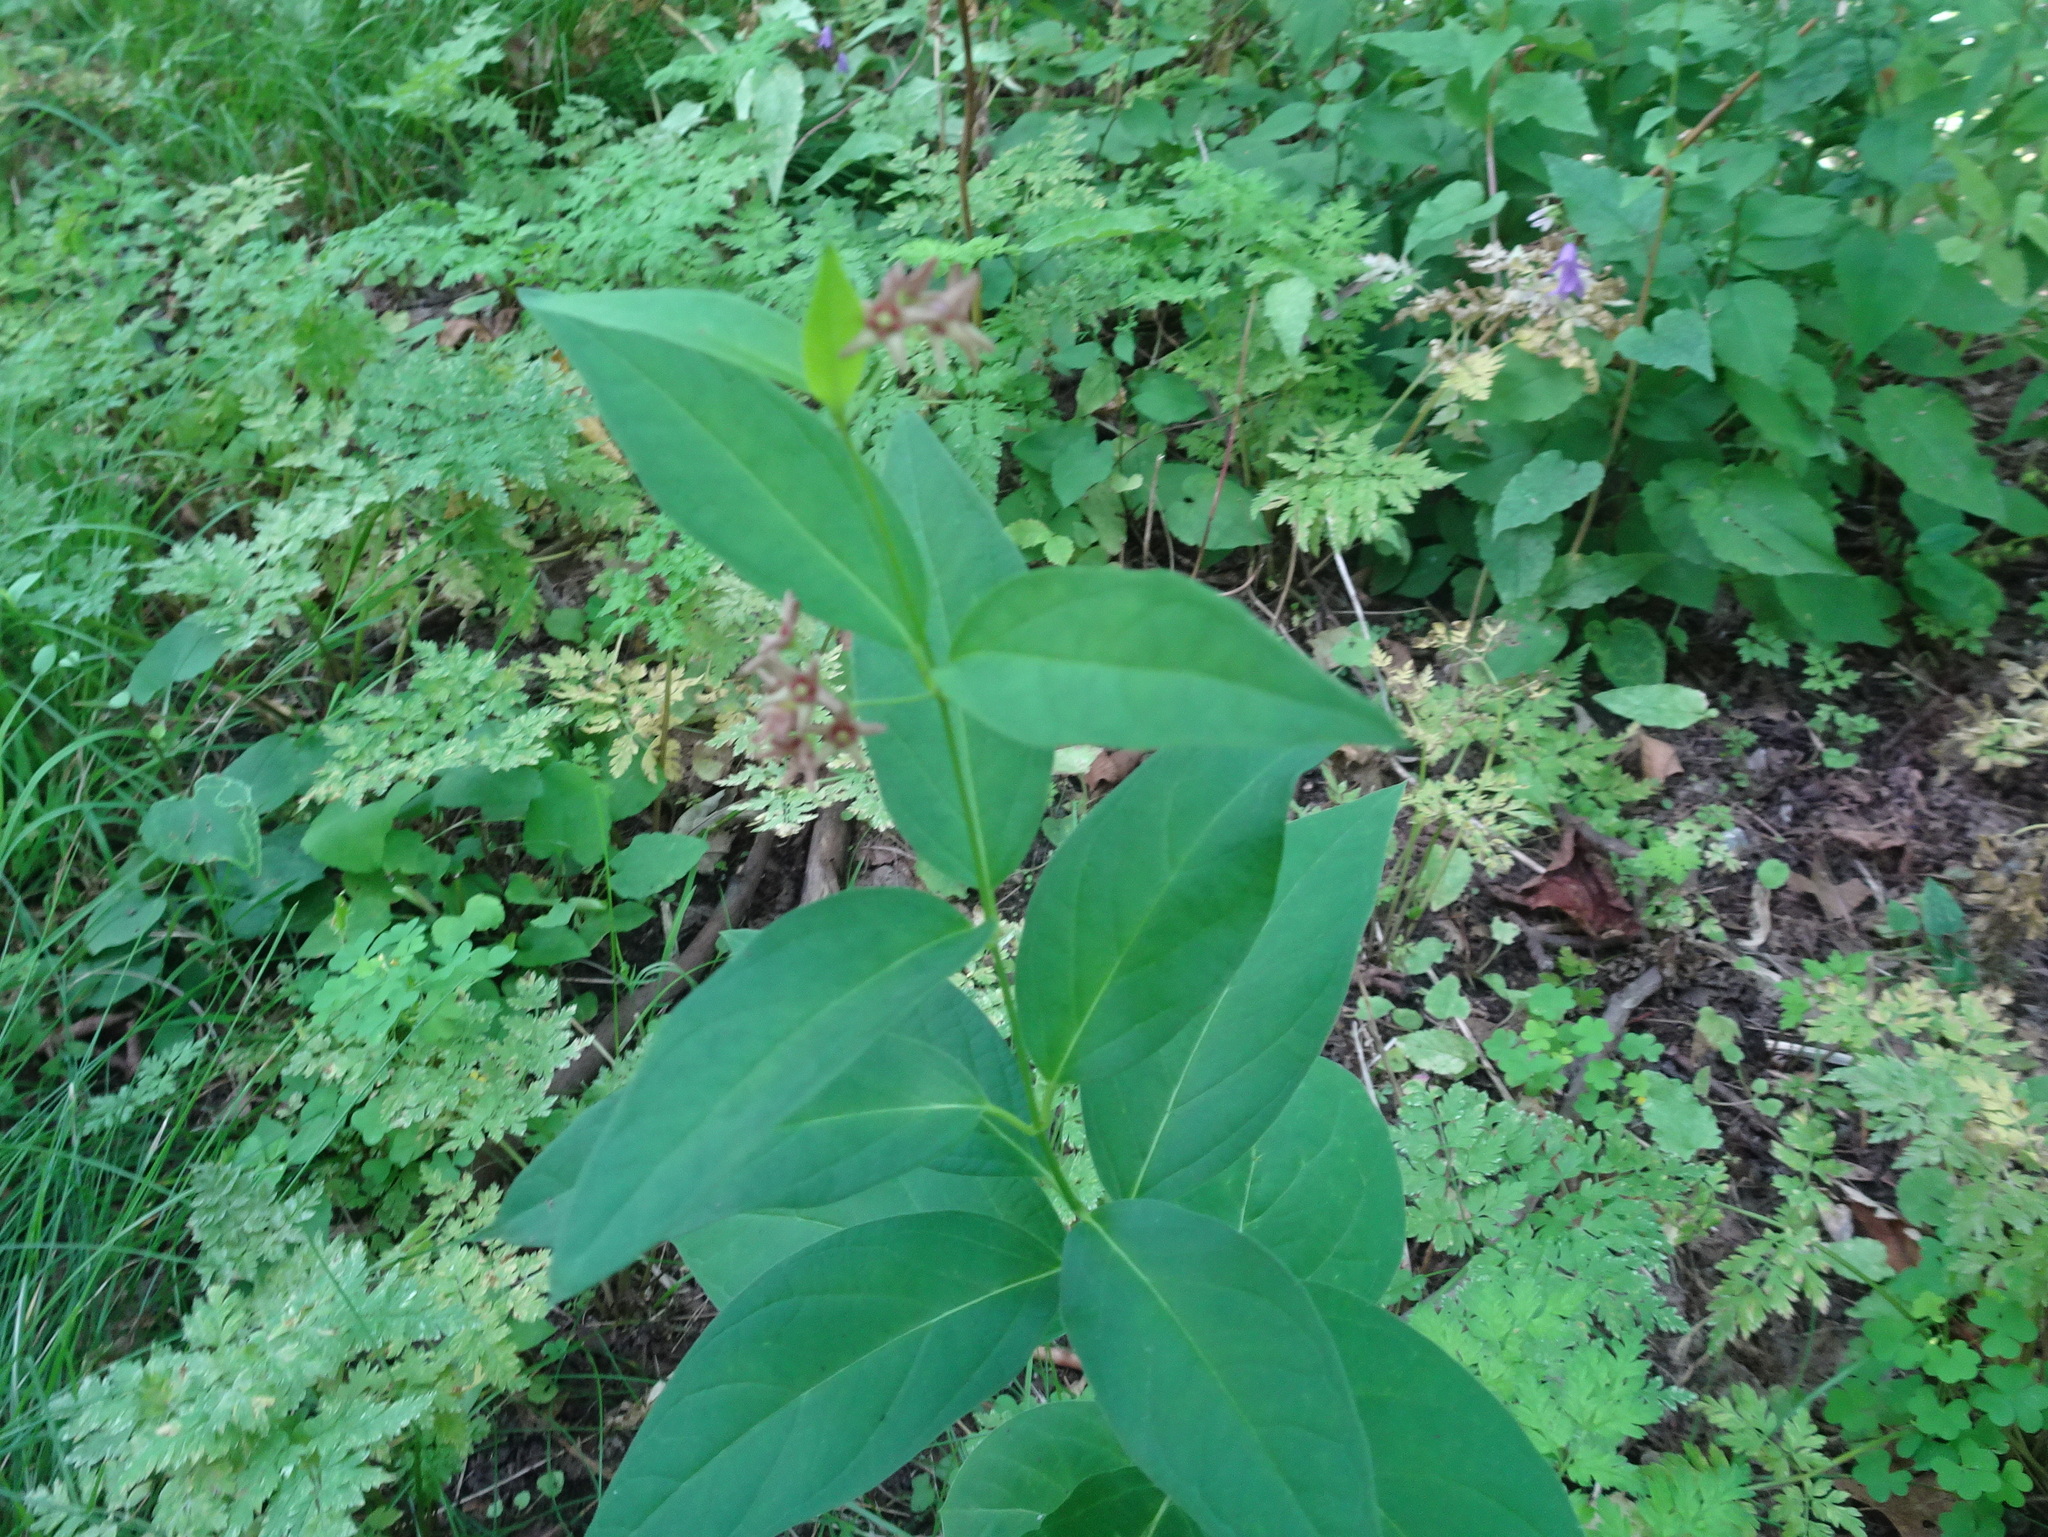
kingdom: Plantae
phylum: Tracheophyta
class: Magnoliopsida
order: Gentianales
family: Apocynaceae
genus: Vincetoxicum
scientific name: Vincetoxicum rossicum
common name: Dog-strangling vine
